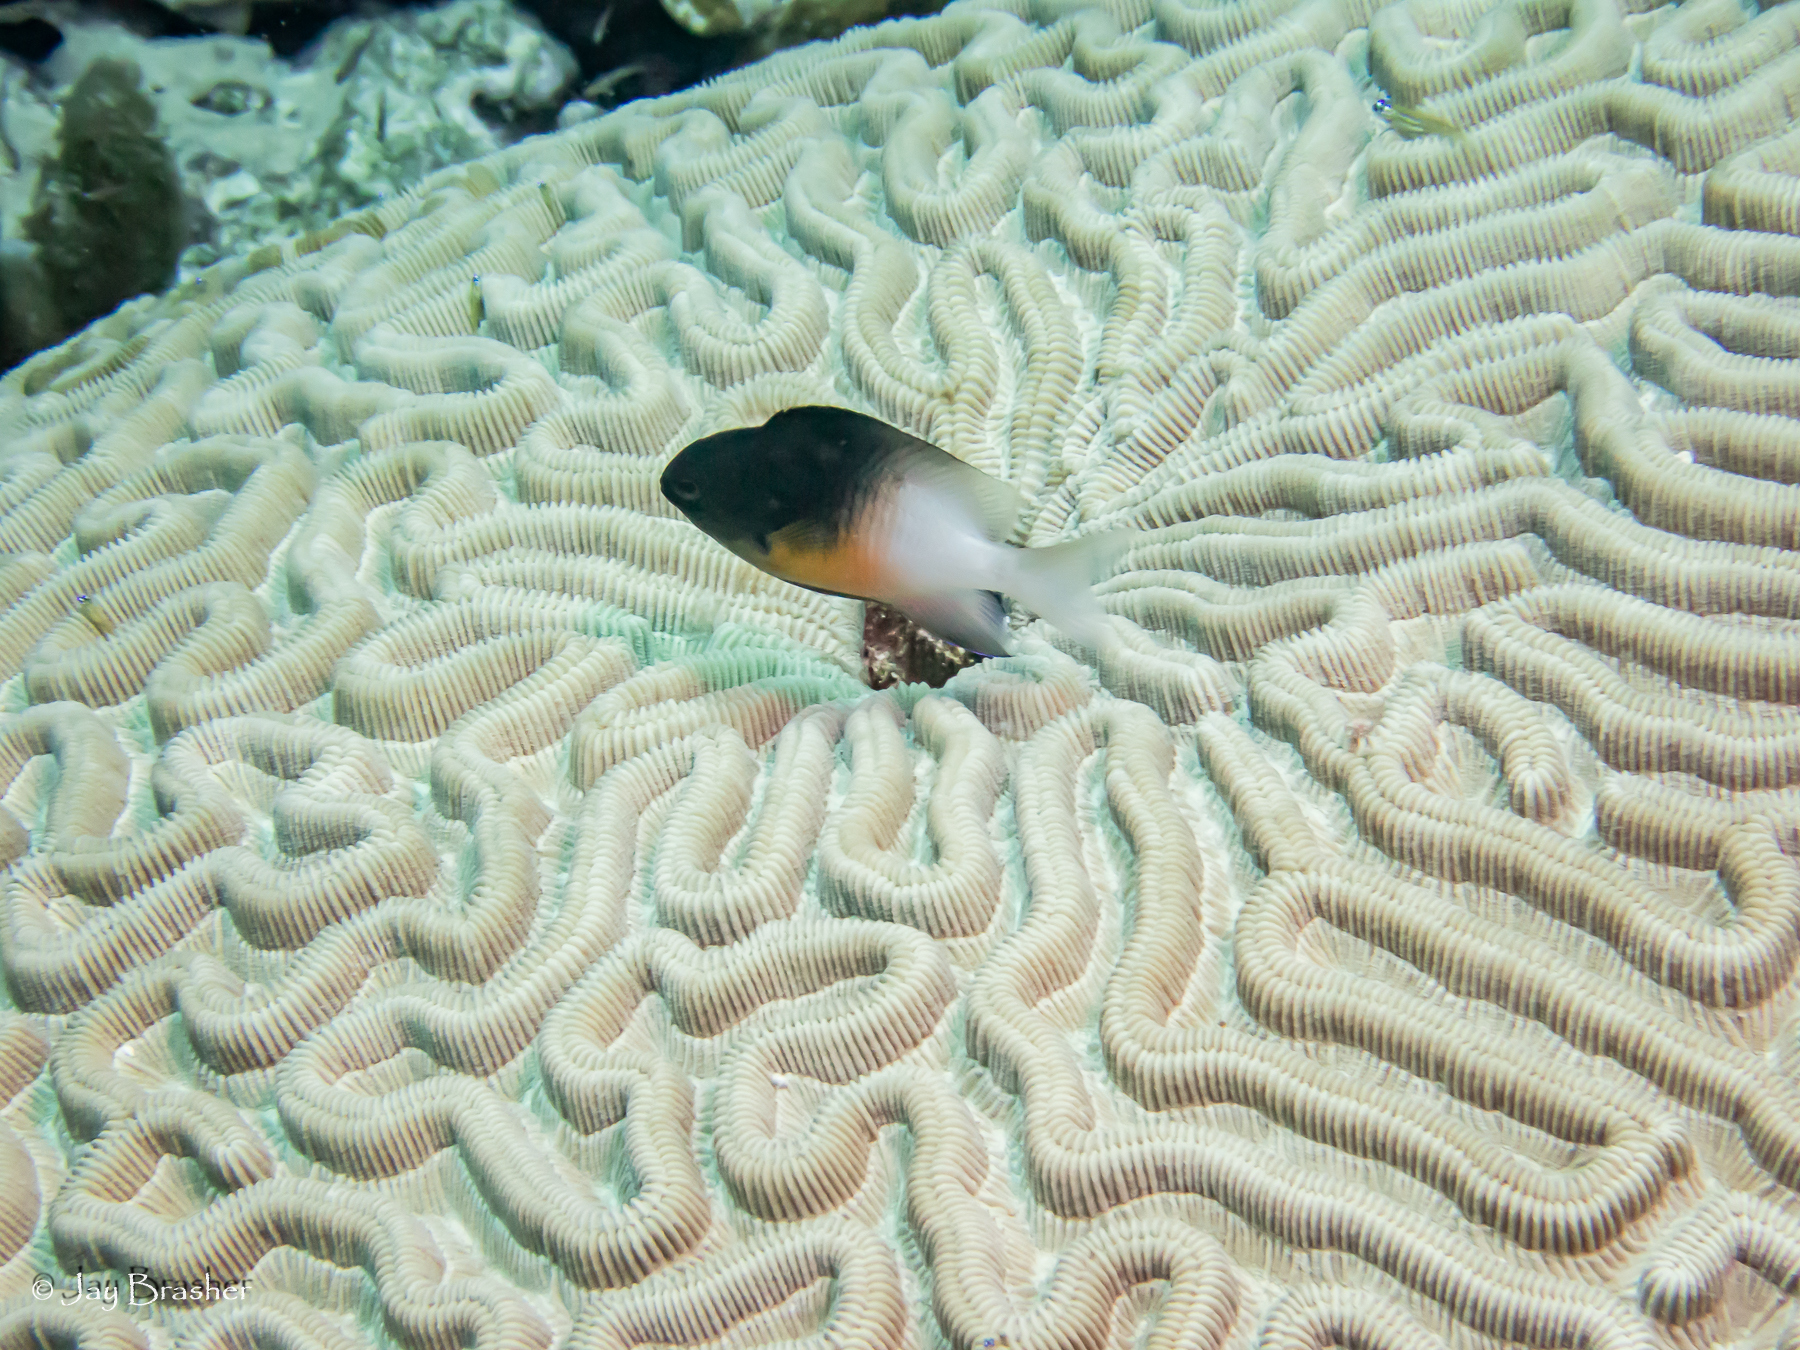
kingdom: Animalia
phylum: Chordata
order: Perciformes
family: Pomacentridae
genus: Stegastes
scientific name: Stegastes partitus
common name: Bicolor damselfish
